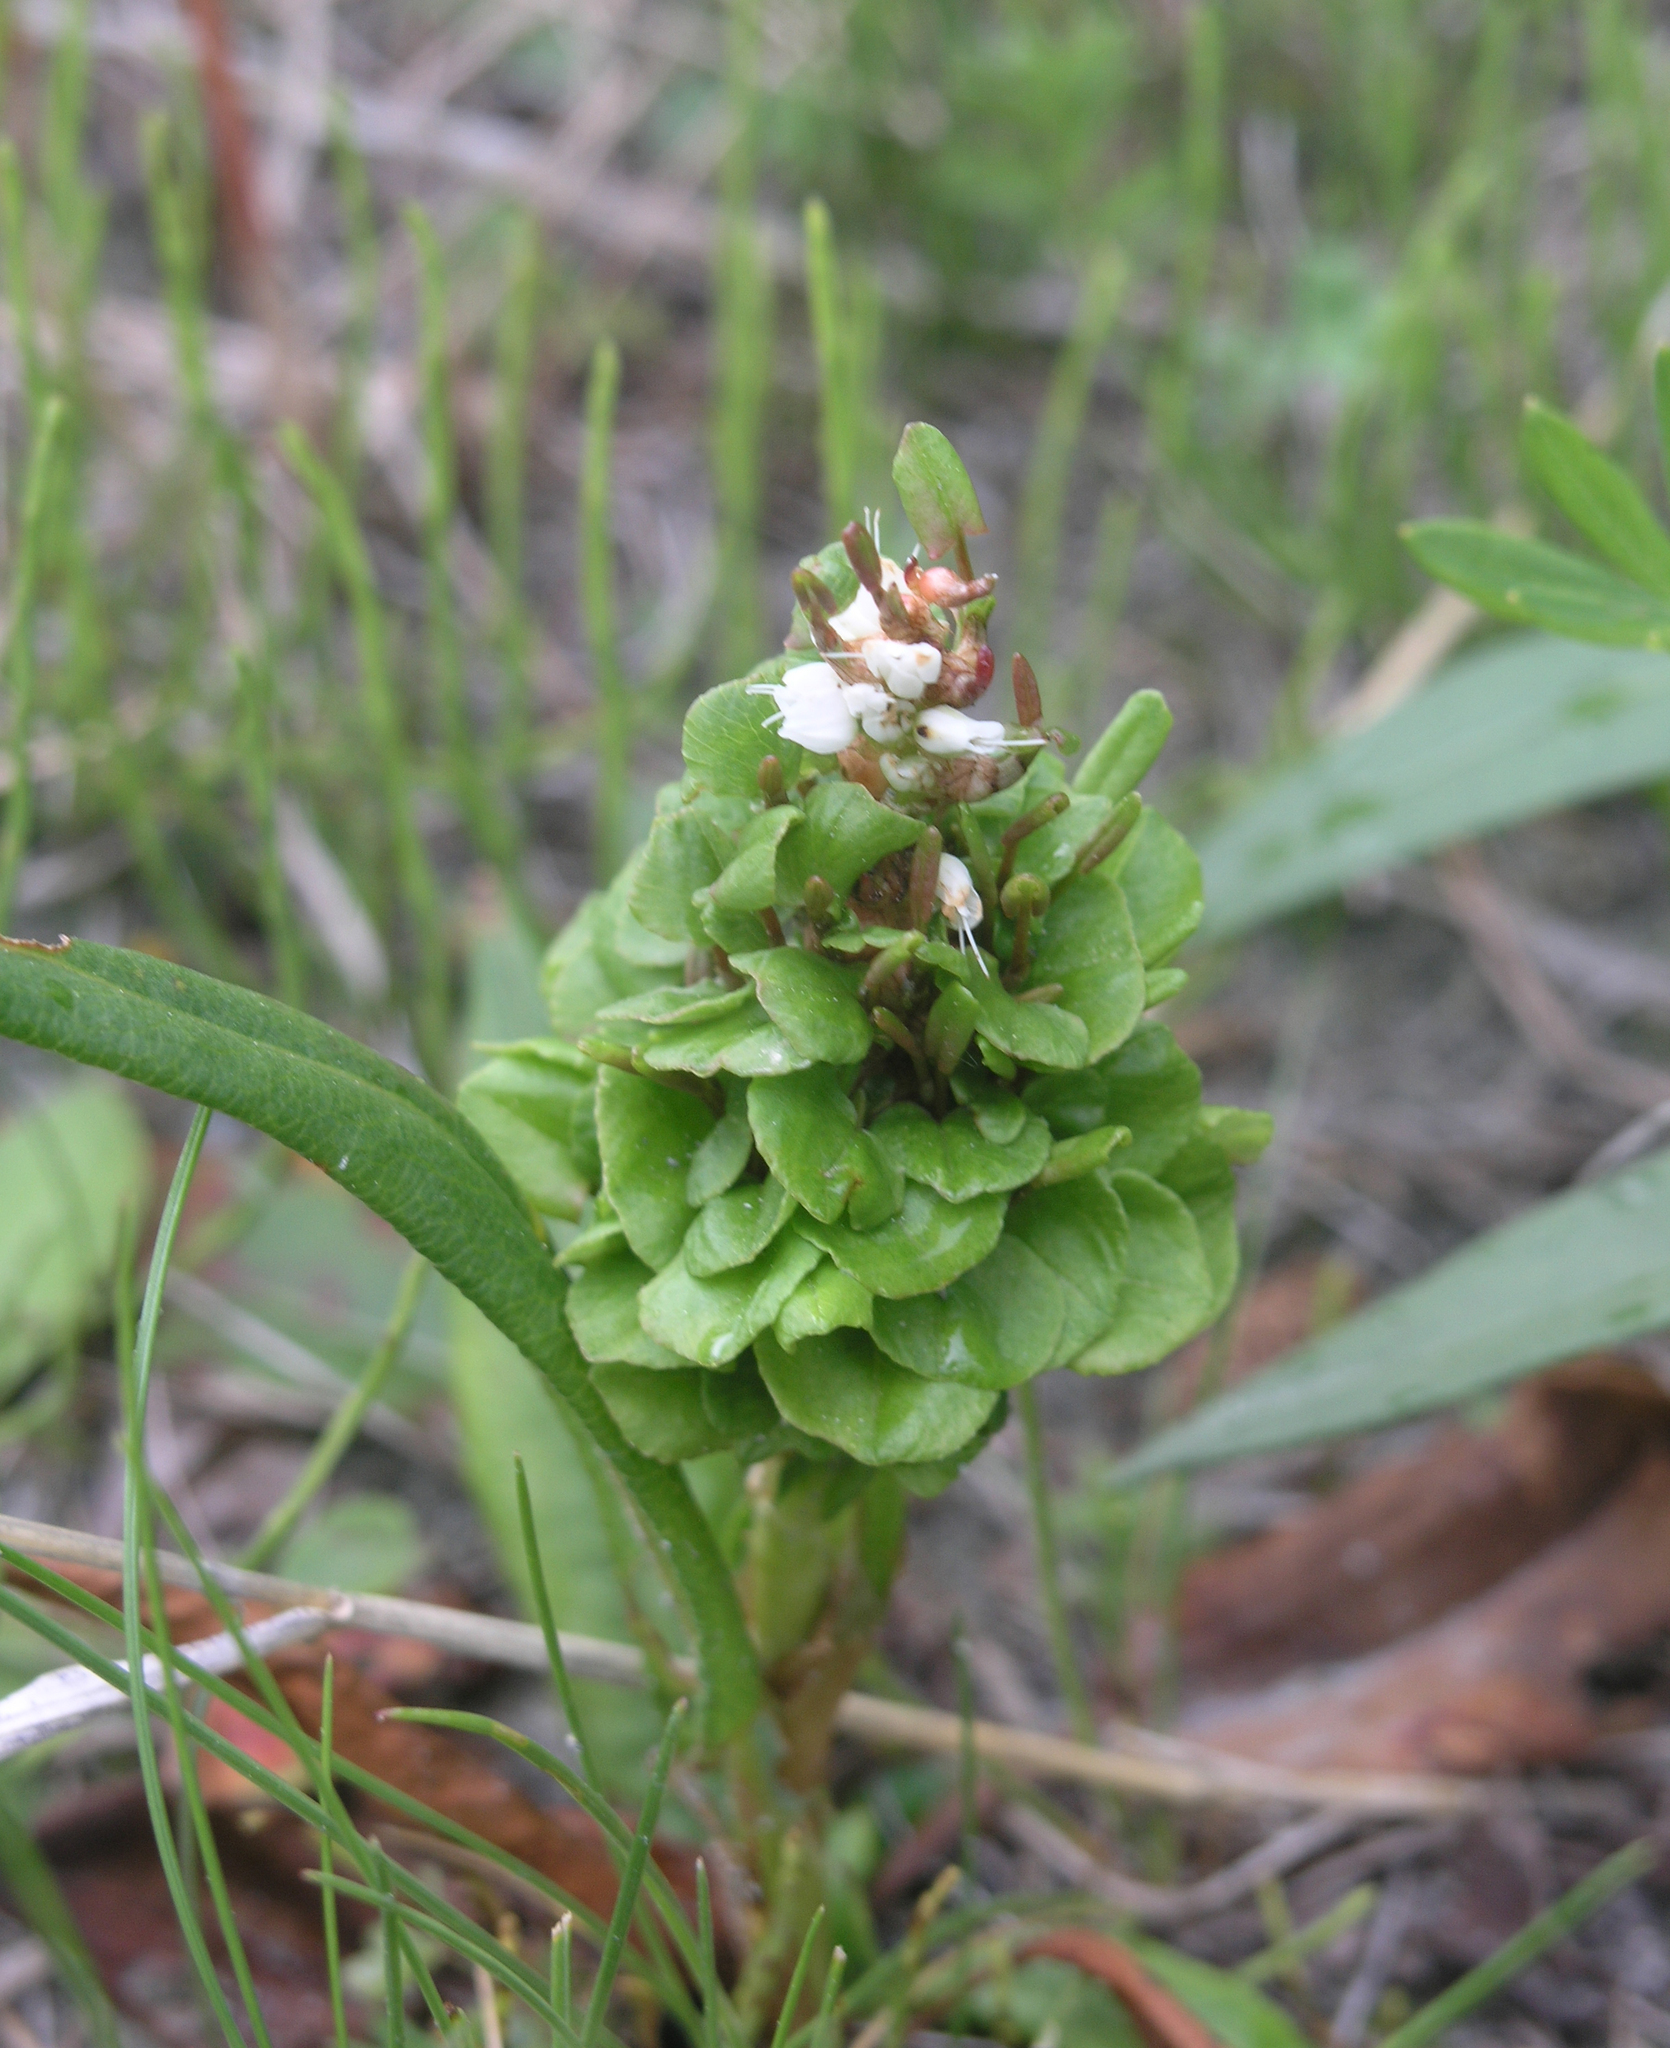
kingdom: Plantae
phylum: Tracheophyta
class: Magnoliopsida
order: Caryophyllales
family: Polygonaceae
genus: Bistorta
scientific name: Bistorta vivipara
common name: Alpine bistort
